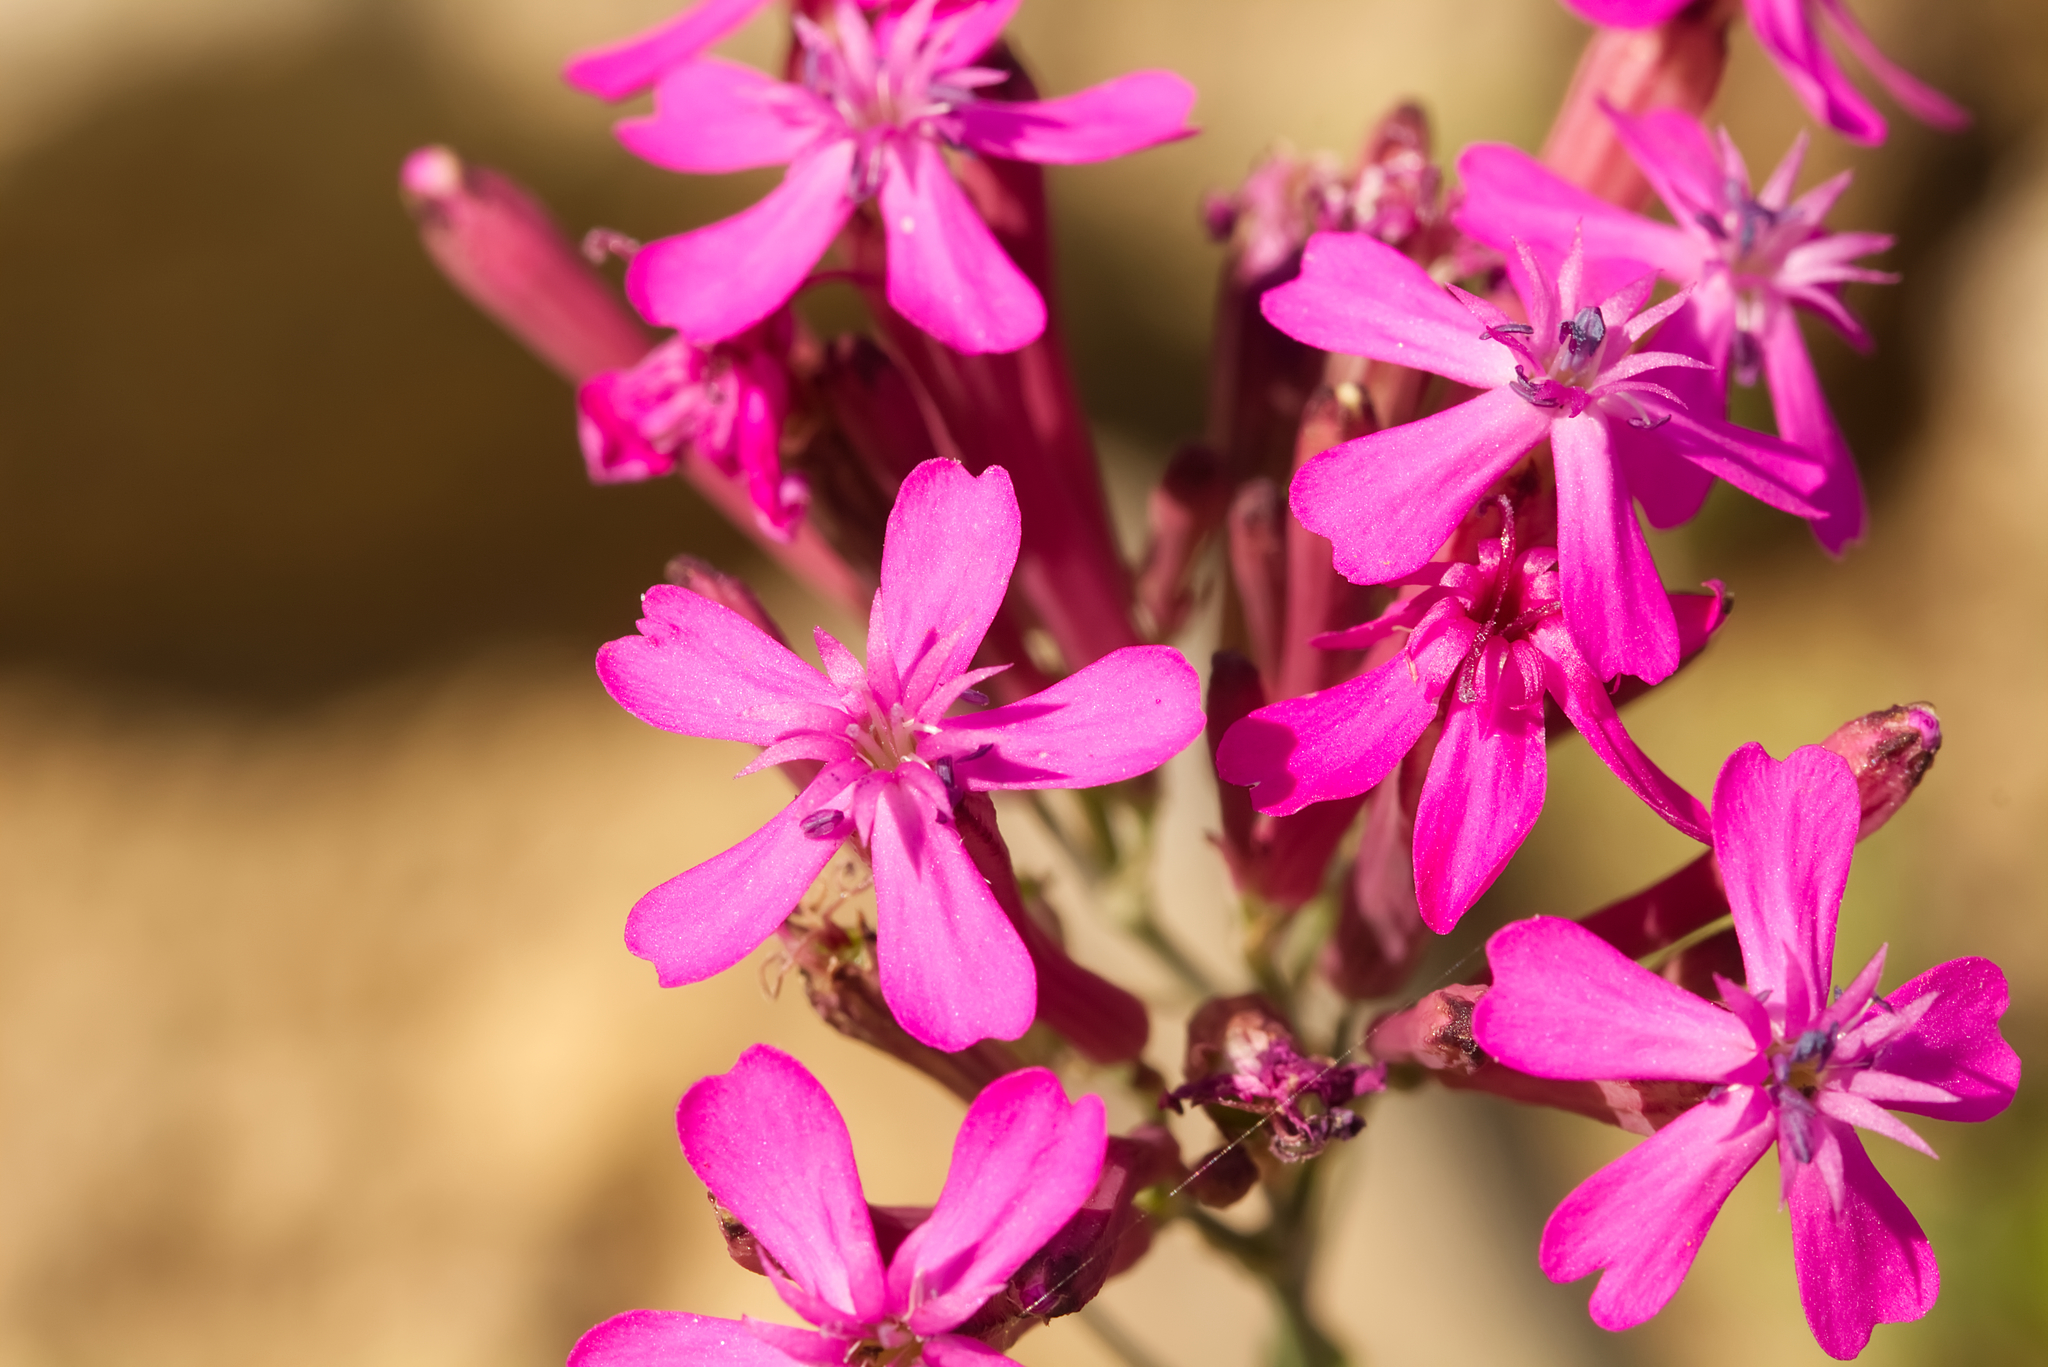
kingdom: Plantae
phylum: Tracheophyta
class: Magnoliopsida
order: Caryophyllales
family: Caryophyllaceae
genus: Atocion
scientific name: Atocion armeria
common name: Sweet william catchfly
